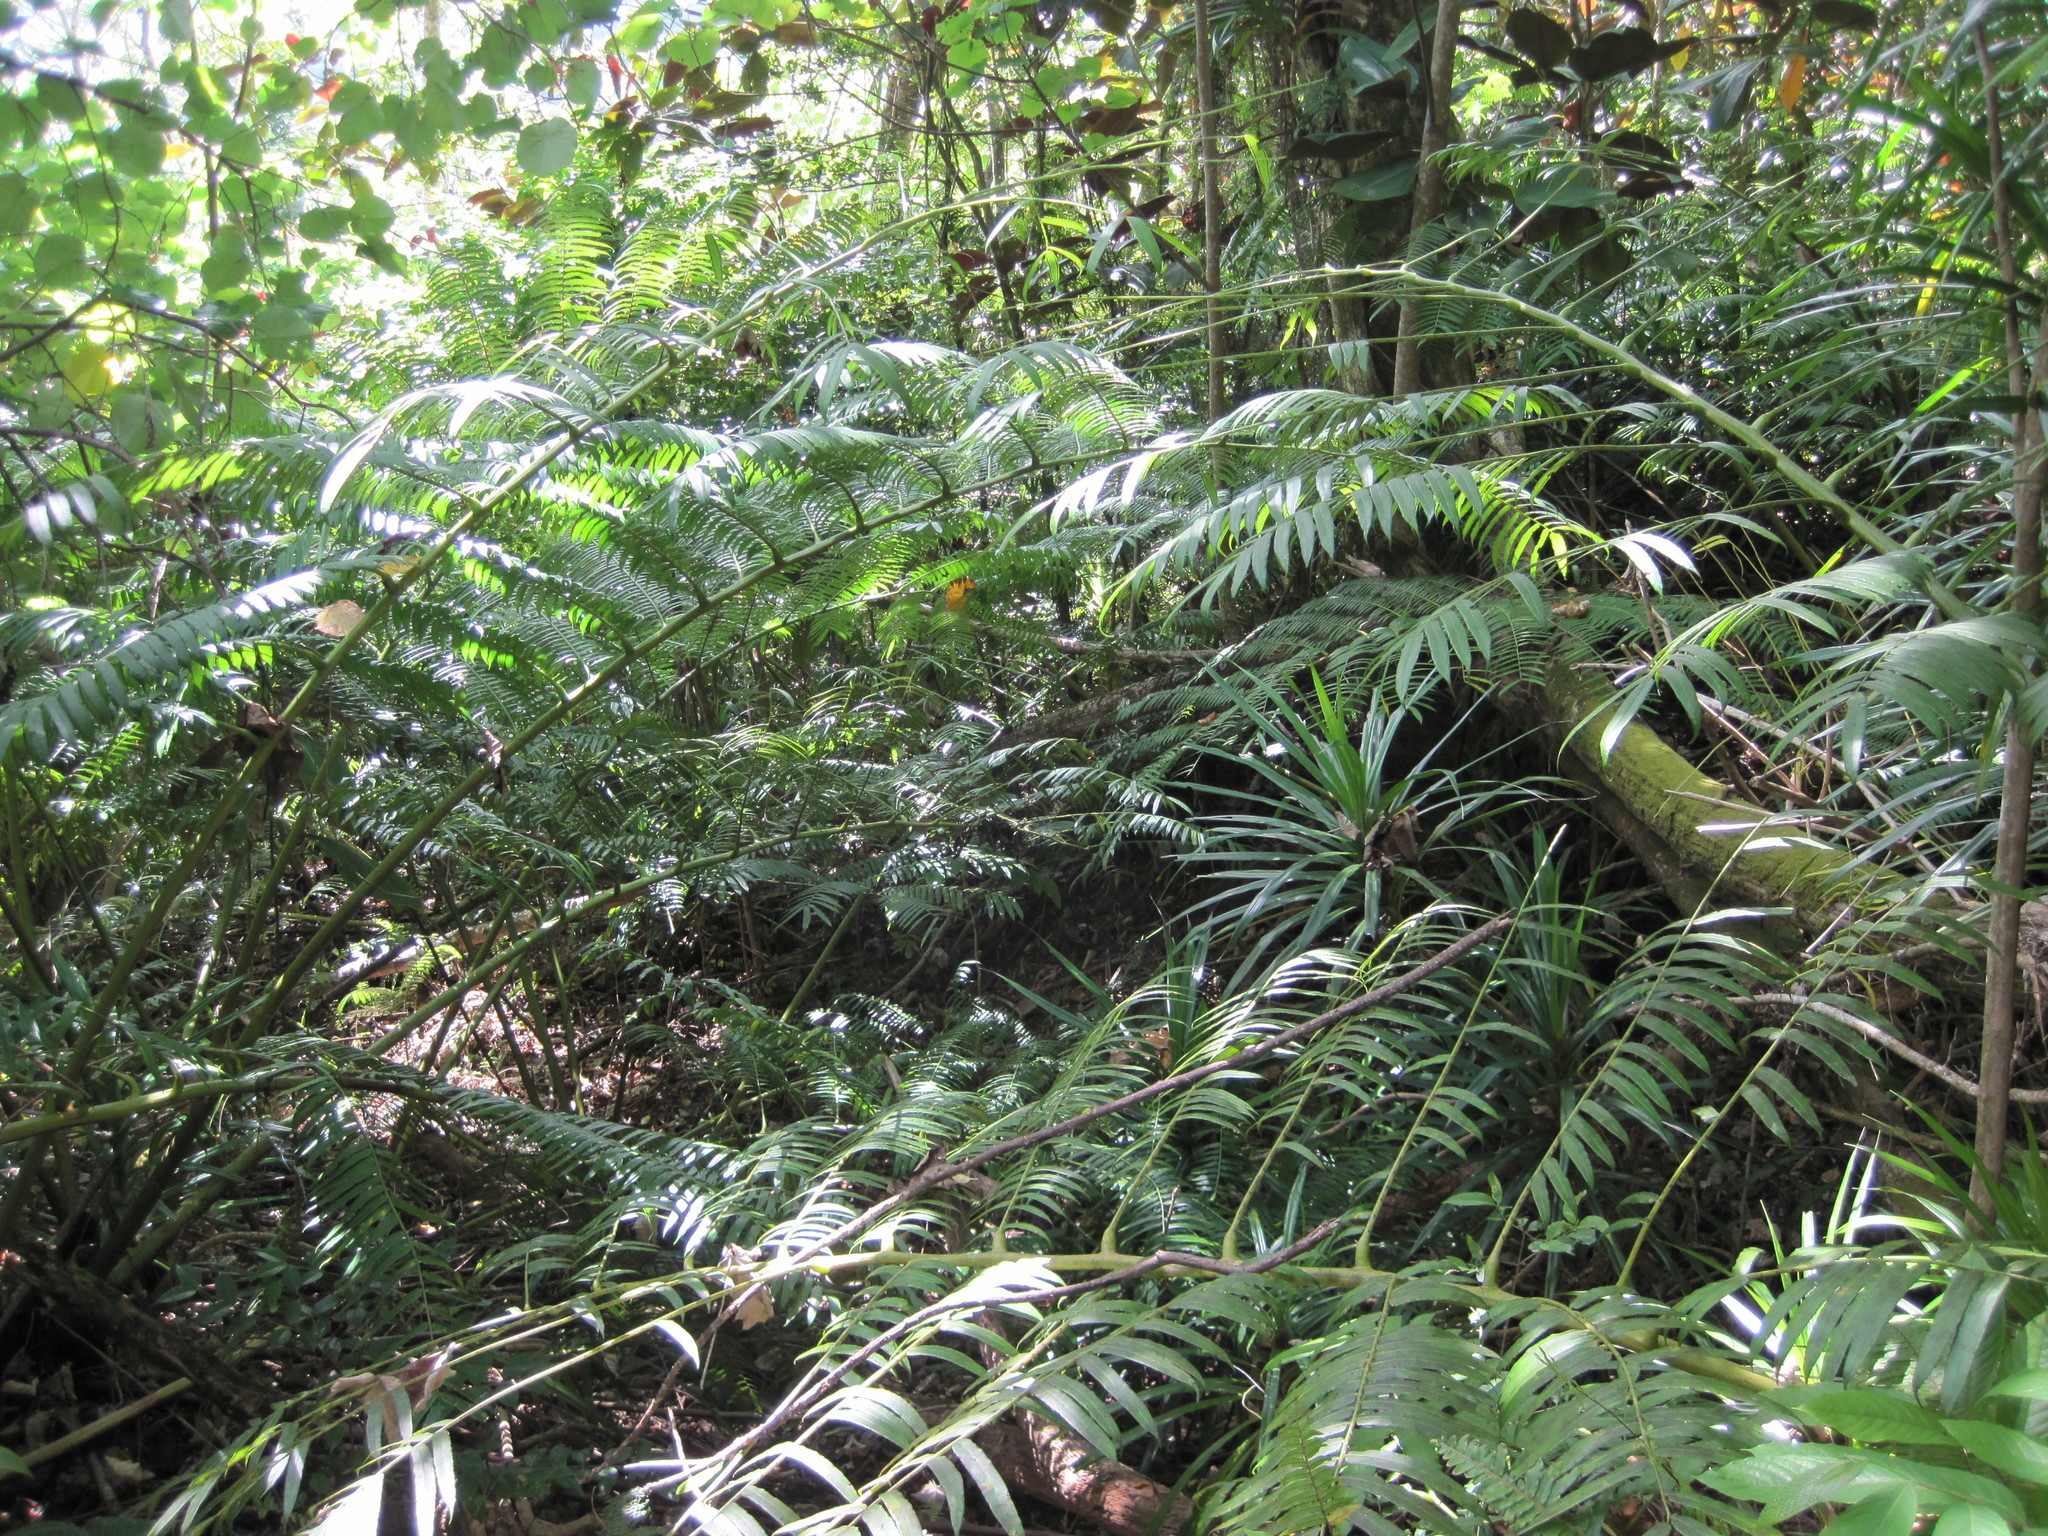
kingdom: Plantae
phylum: Tracheophyta
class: Polypodiopsida
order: Marattiales
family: Marattiaceae
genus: Angiopteris
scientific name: Angiopteris evecta
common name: Mule's-foot fern
